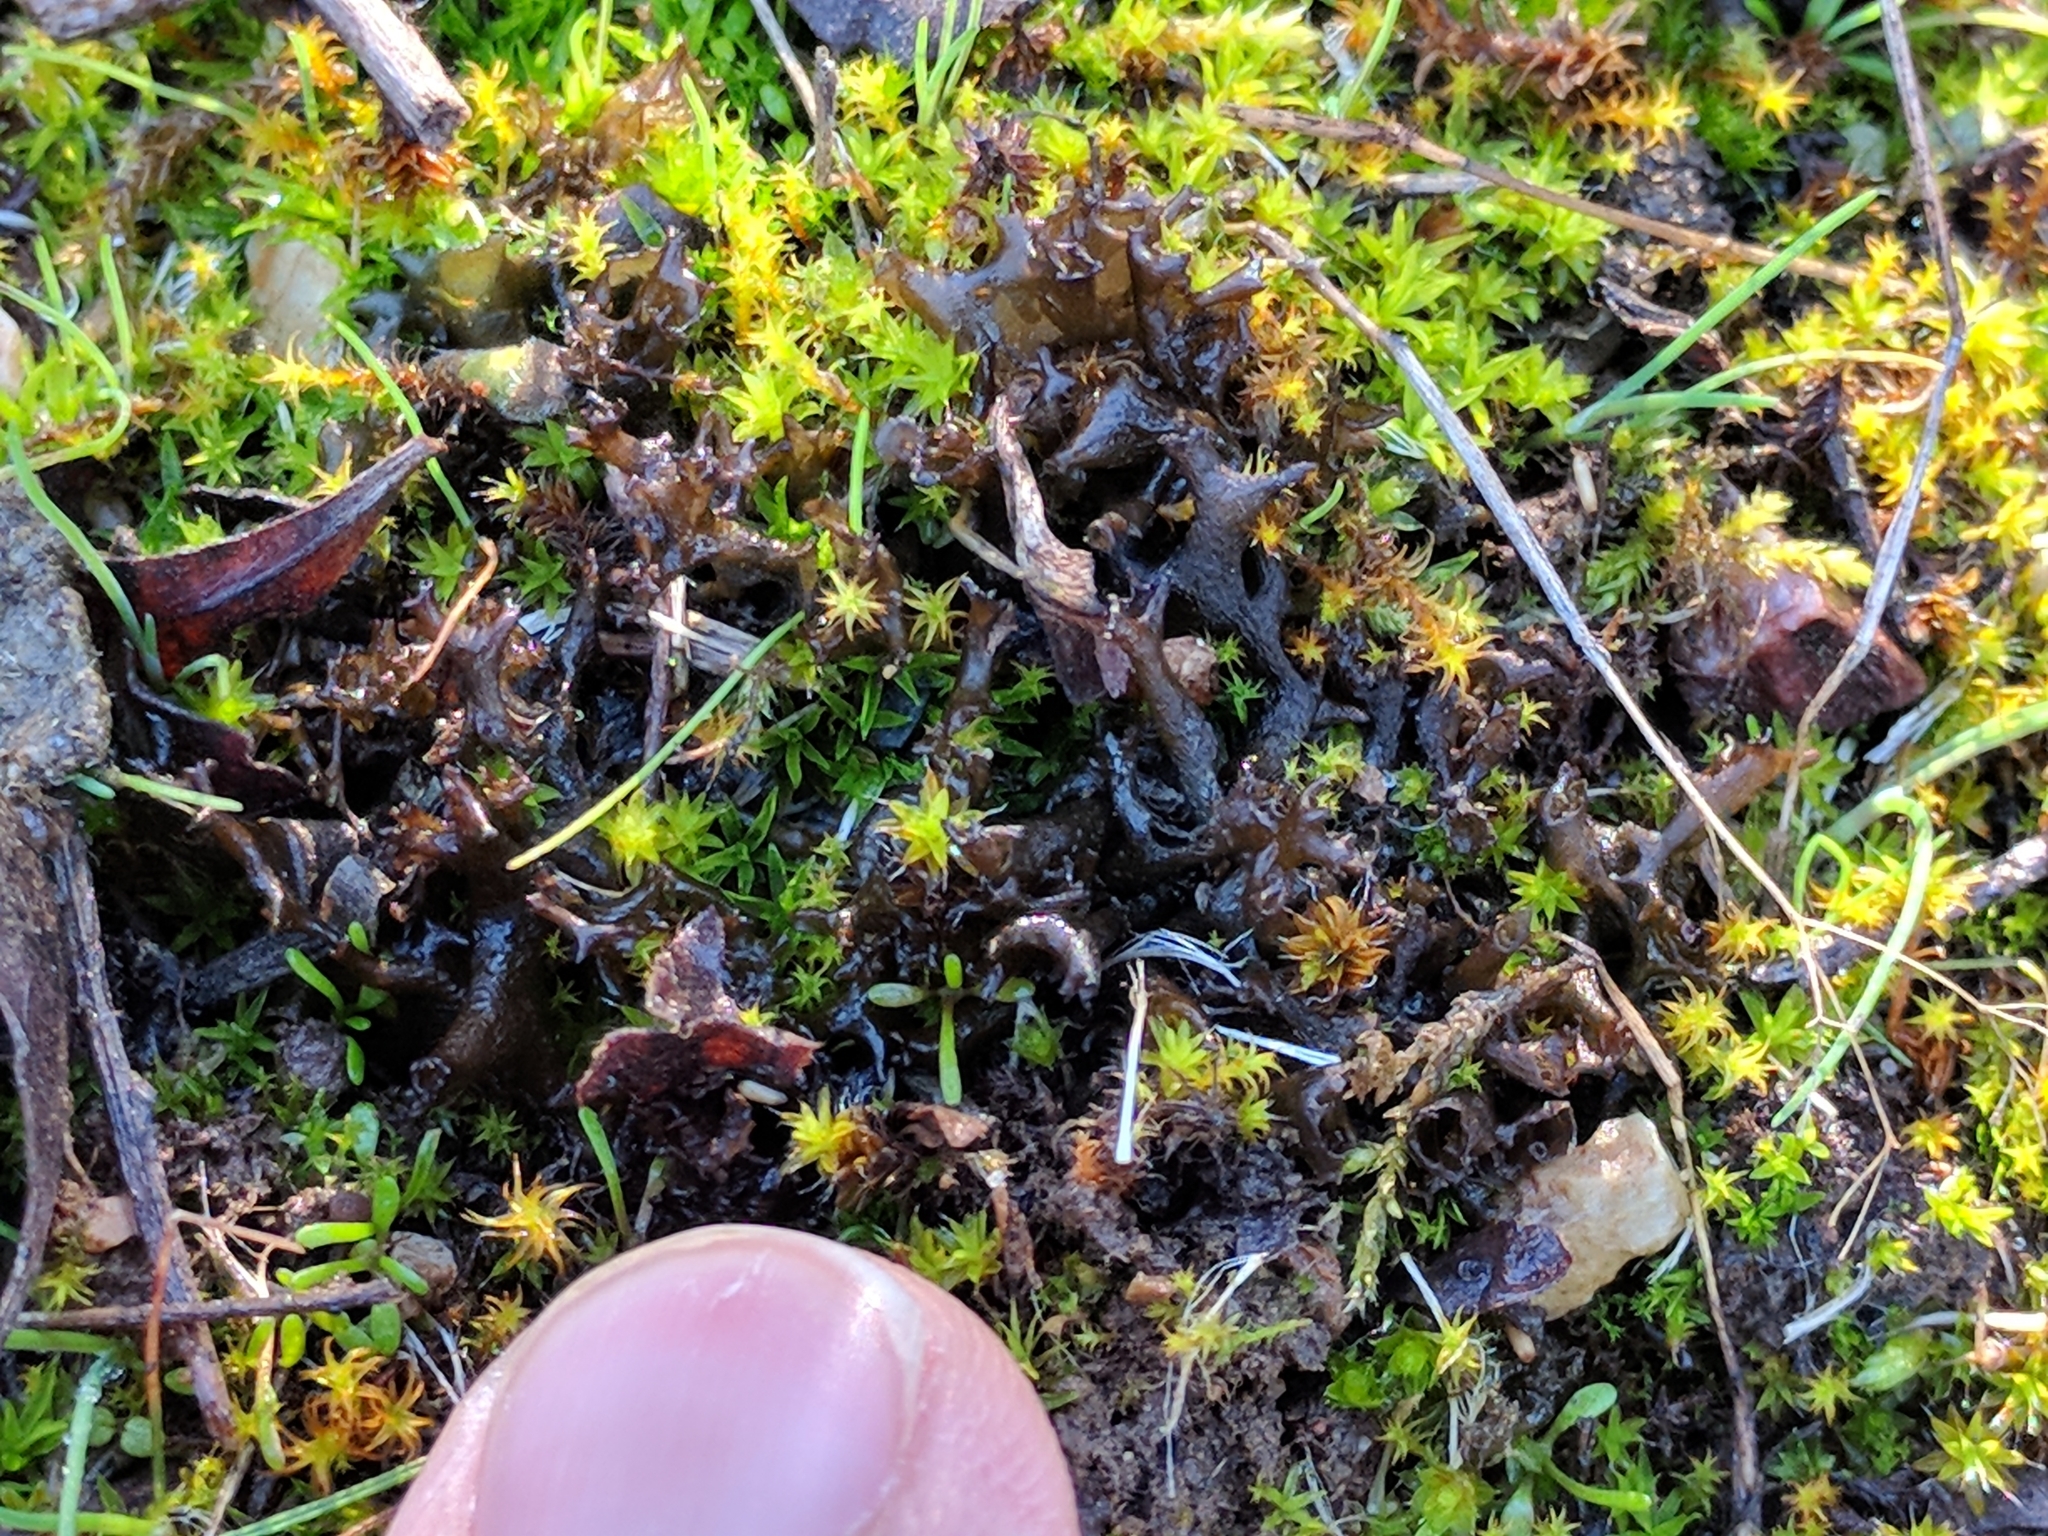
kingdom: Fungi
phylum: Ascomycota
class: Lecanoromycetes
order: Peltigerales
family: Collemataceae
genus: Scytinium
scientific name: Scytinium palmatum
